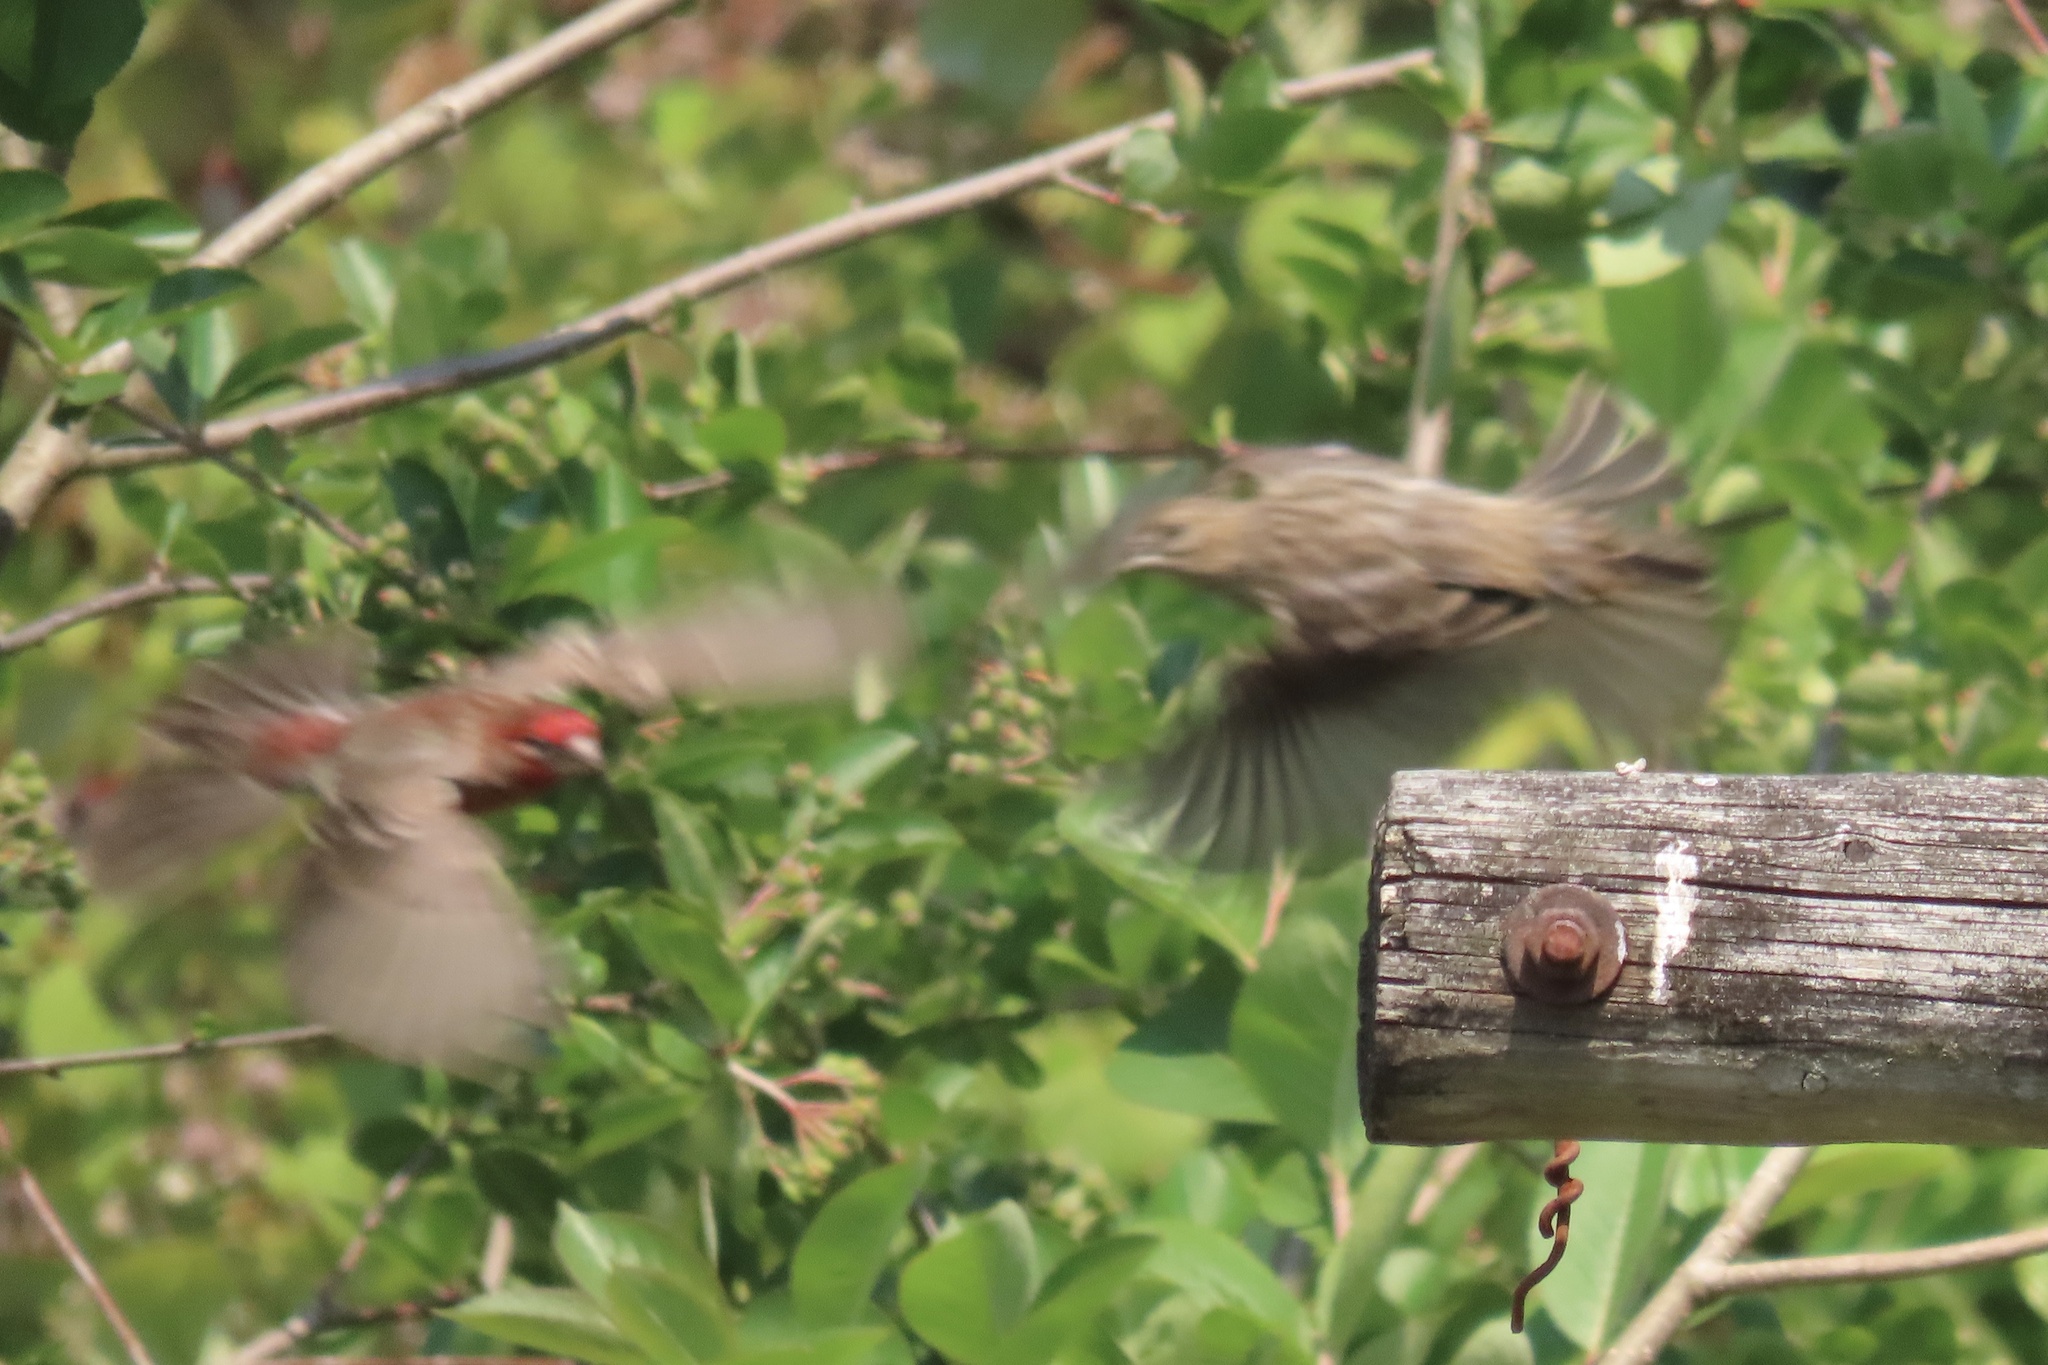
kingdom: Animalia
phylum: Chordata
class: Aves
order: Passeriformes
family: Fringillidae
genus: Haemorhous
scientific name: Haemorhous mexicanus
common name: House finch
